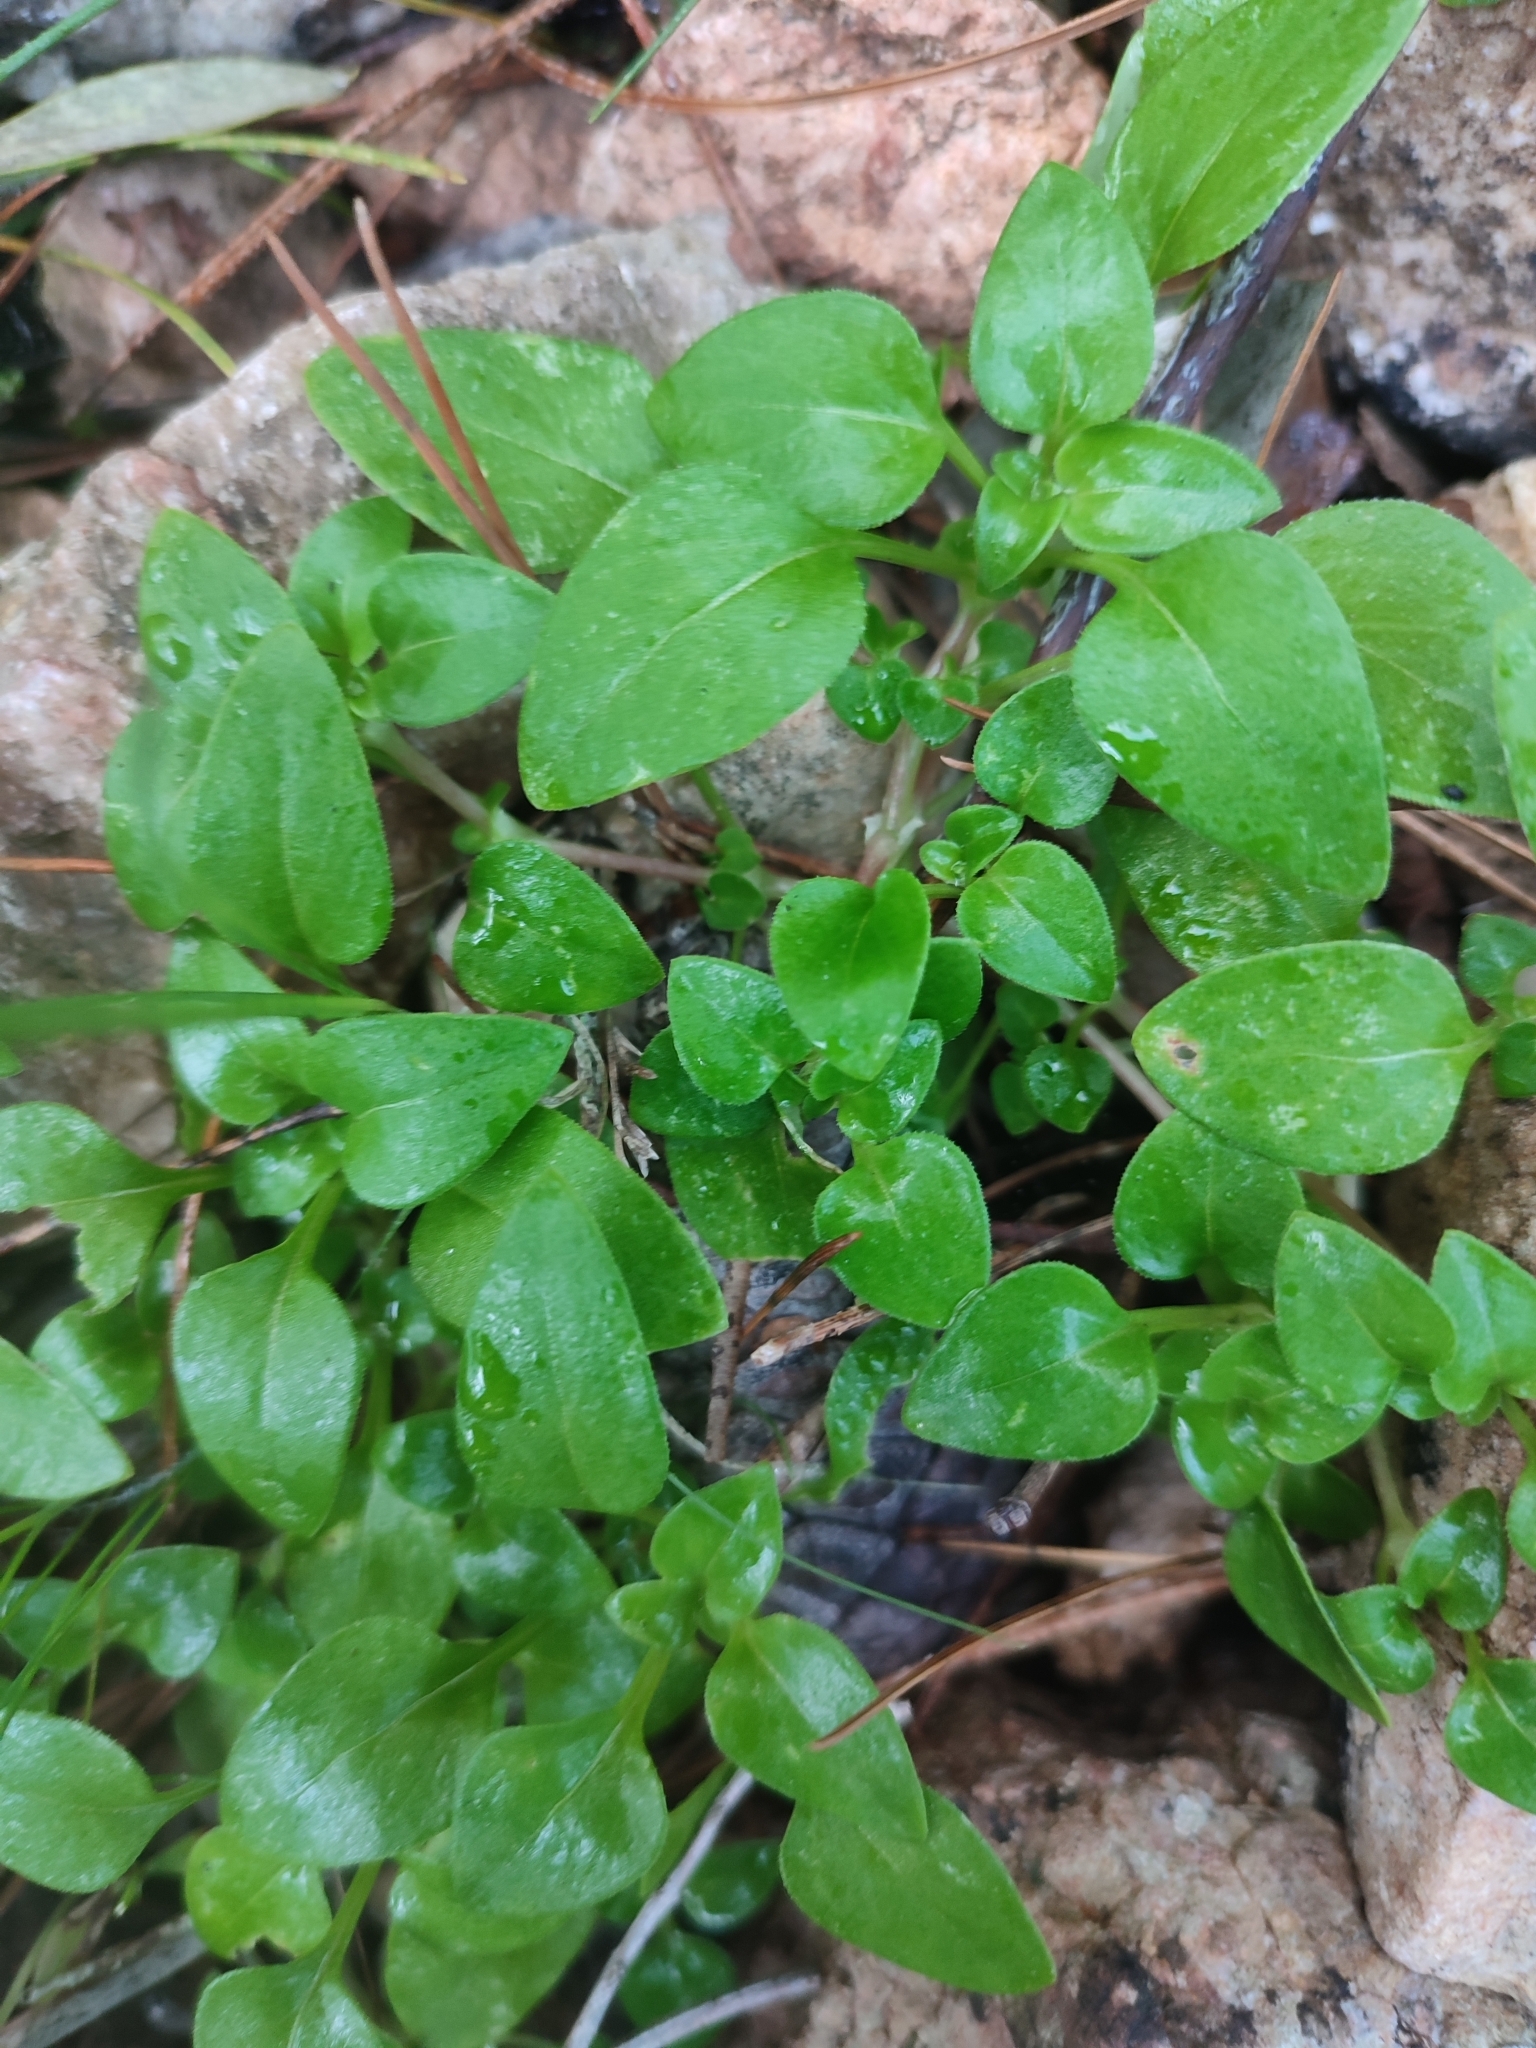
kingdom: Plantae
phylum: Tracheophyta
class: Magnoliopsida
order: Gentianales
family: Rubiaceae
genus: Theligonum
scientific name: Theligonum cynocrambe
